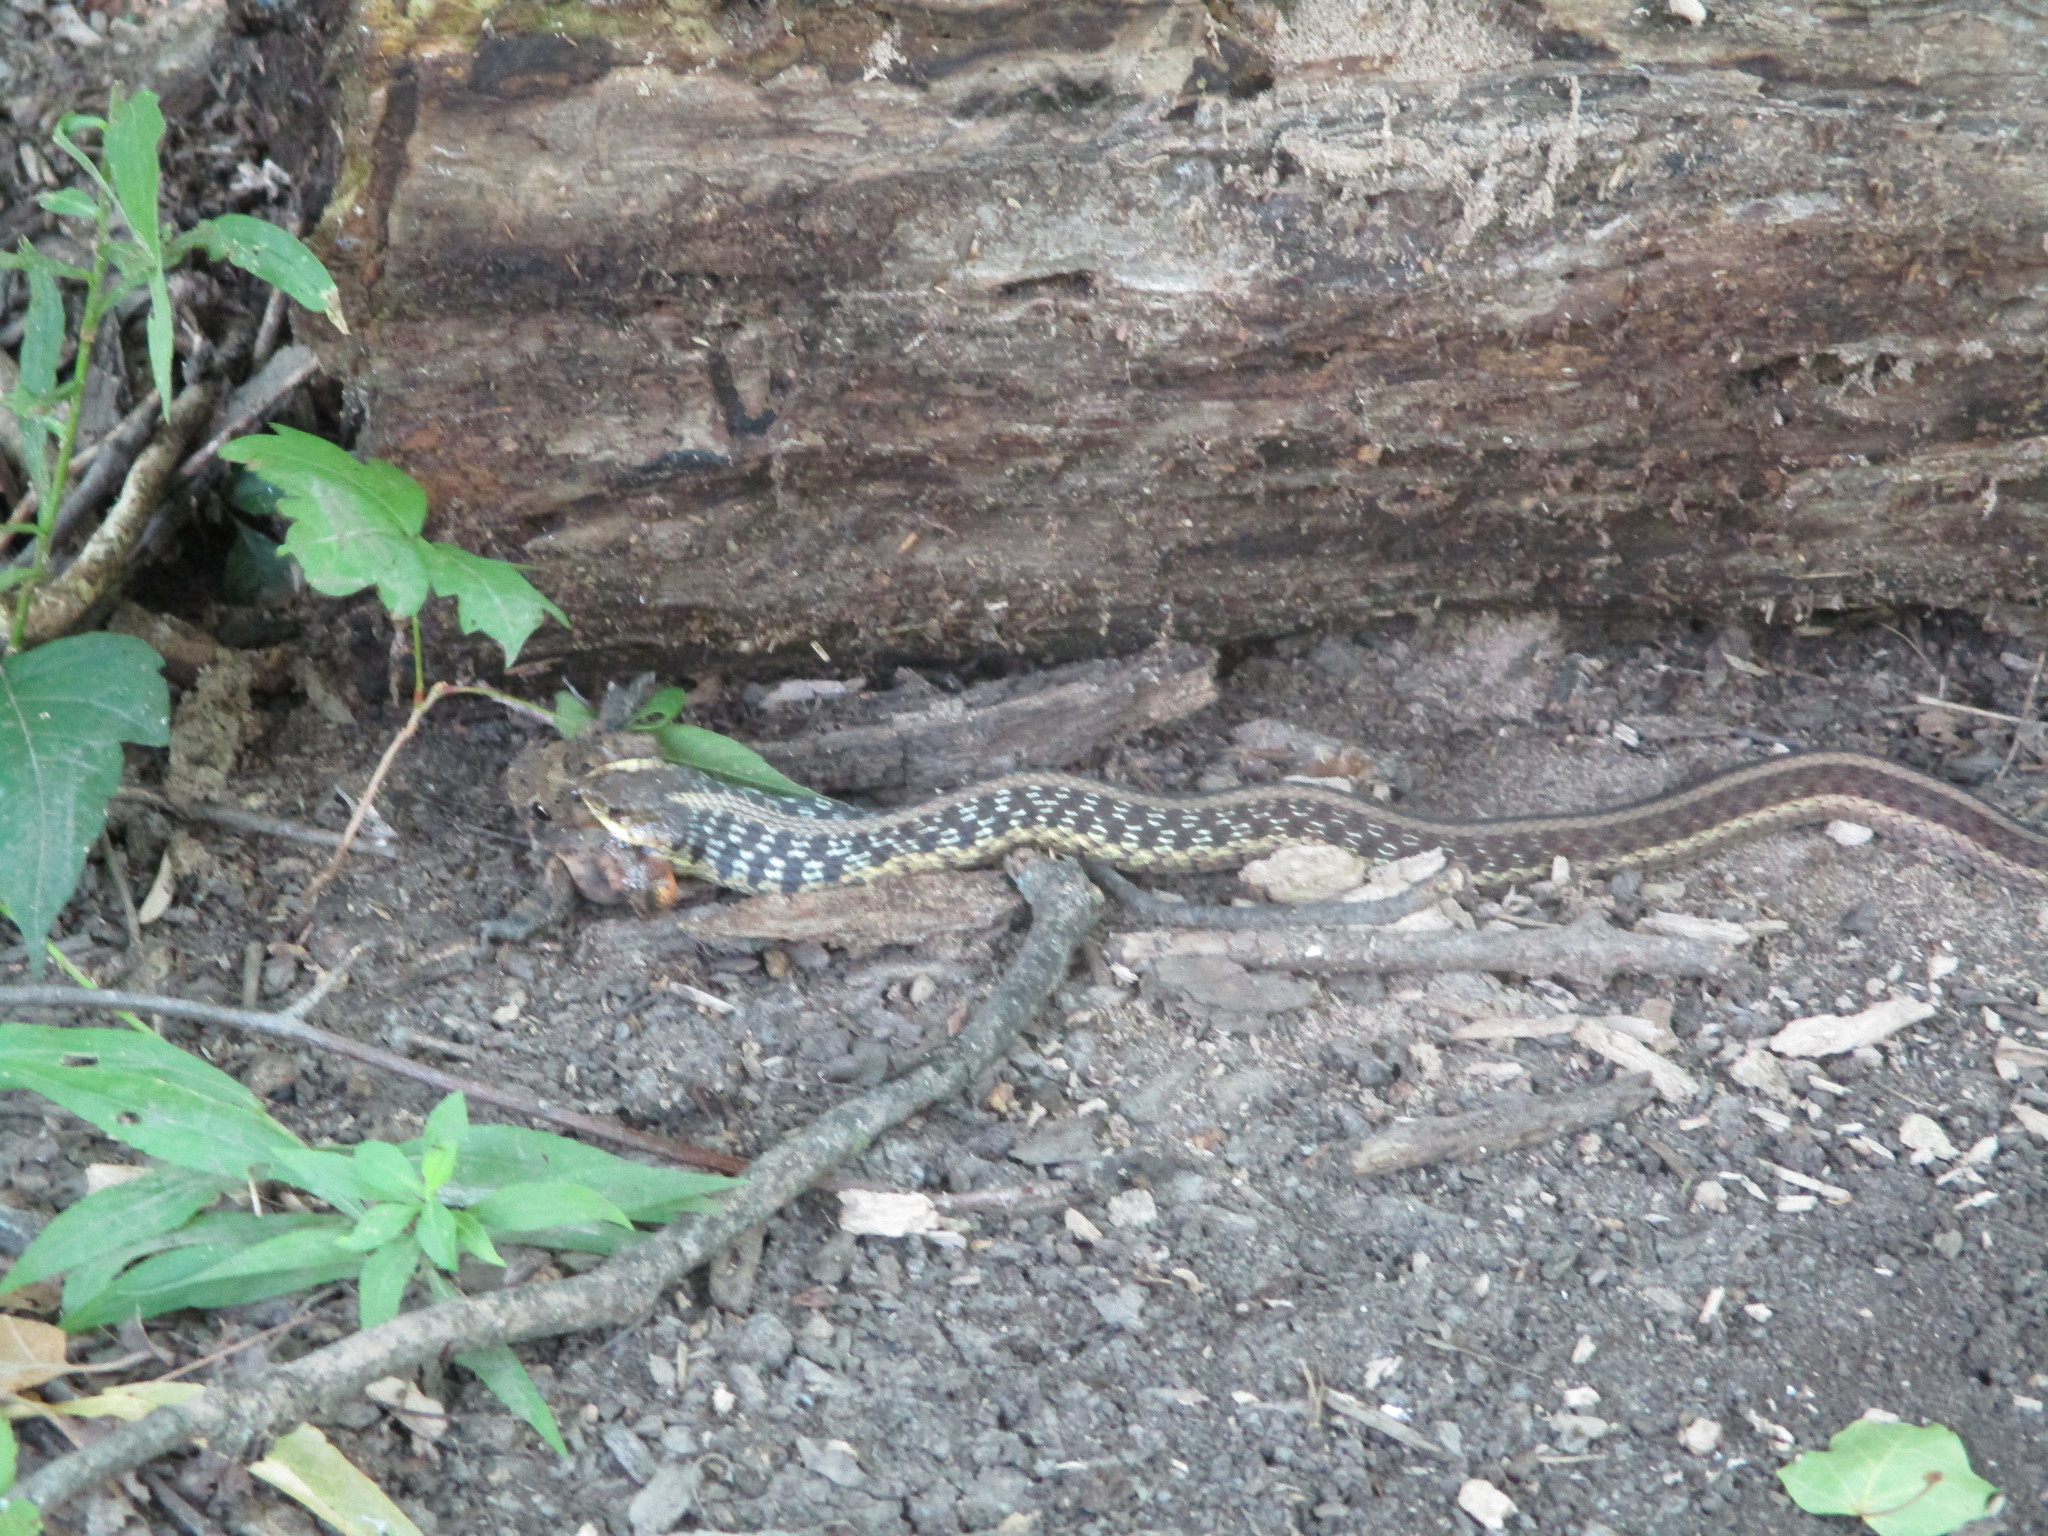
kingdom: Animalia
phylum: Chordata
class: Squamata
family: Colubridae
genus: Thamnophis
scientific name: Thamnophis sirtalis
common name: Common garter snake
